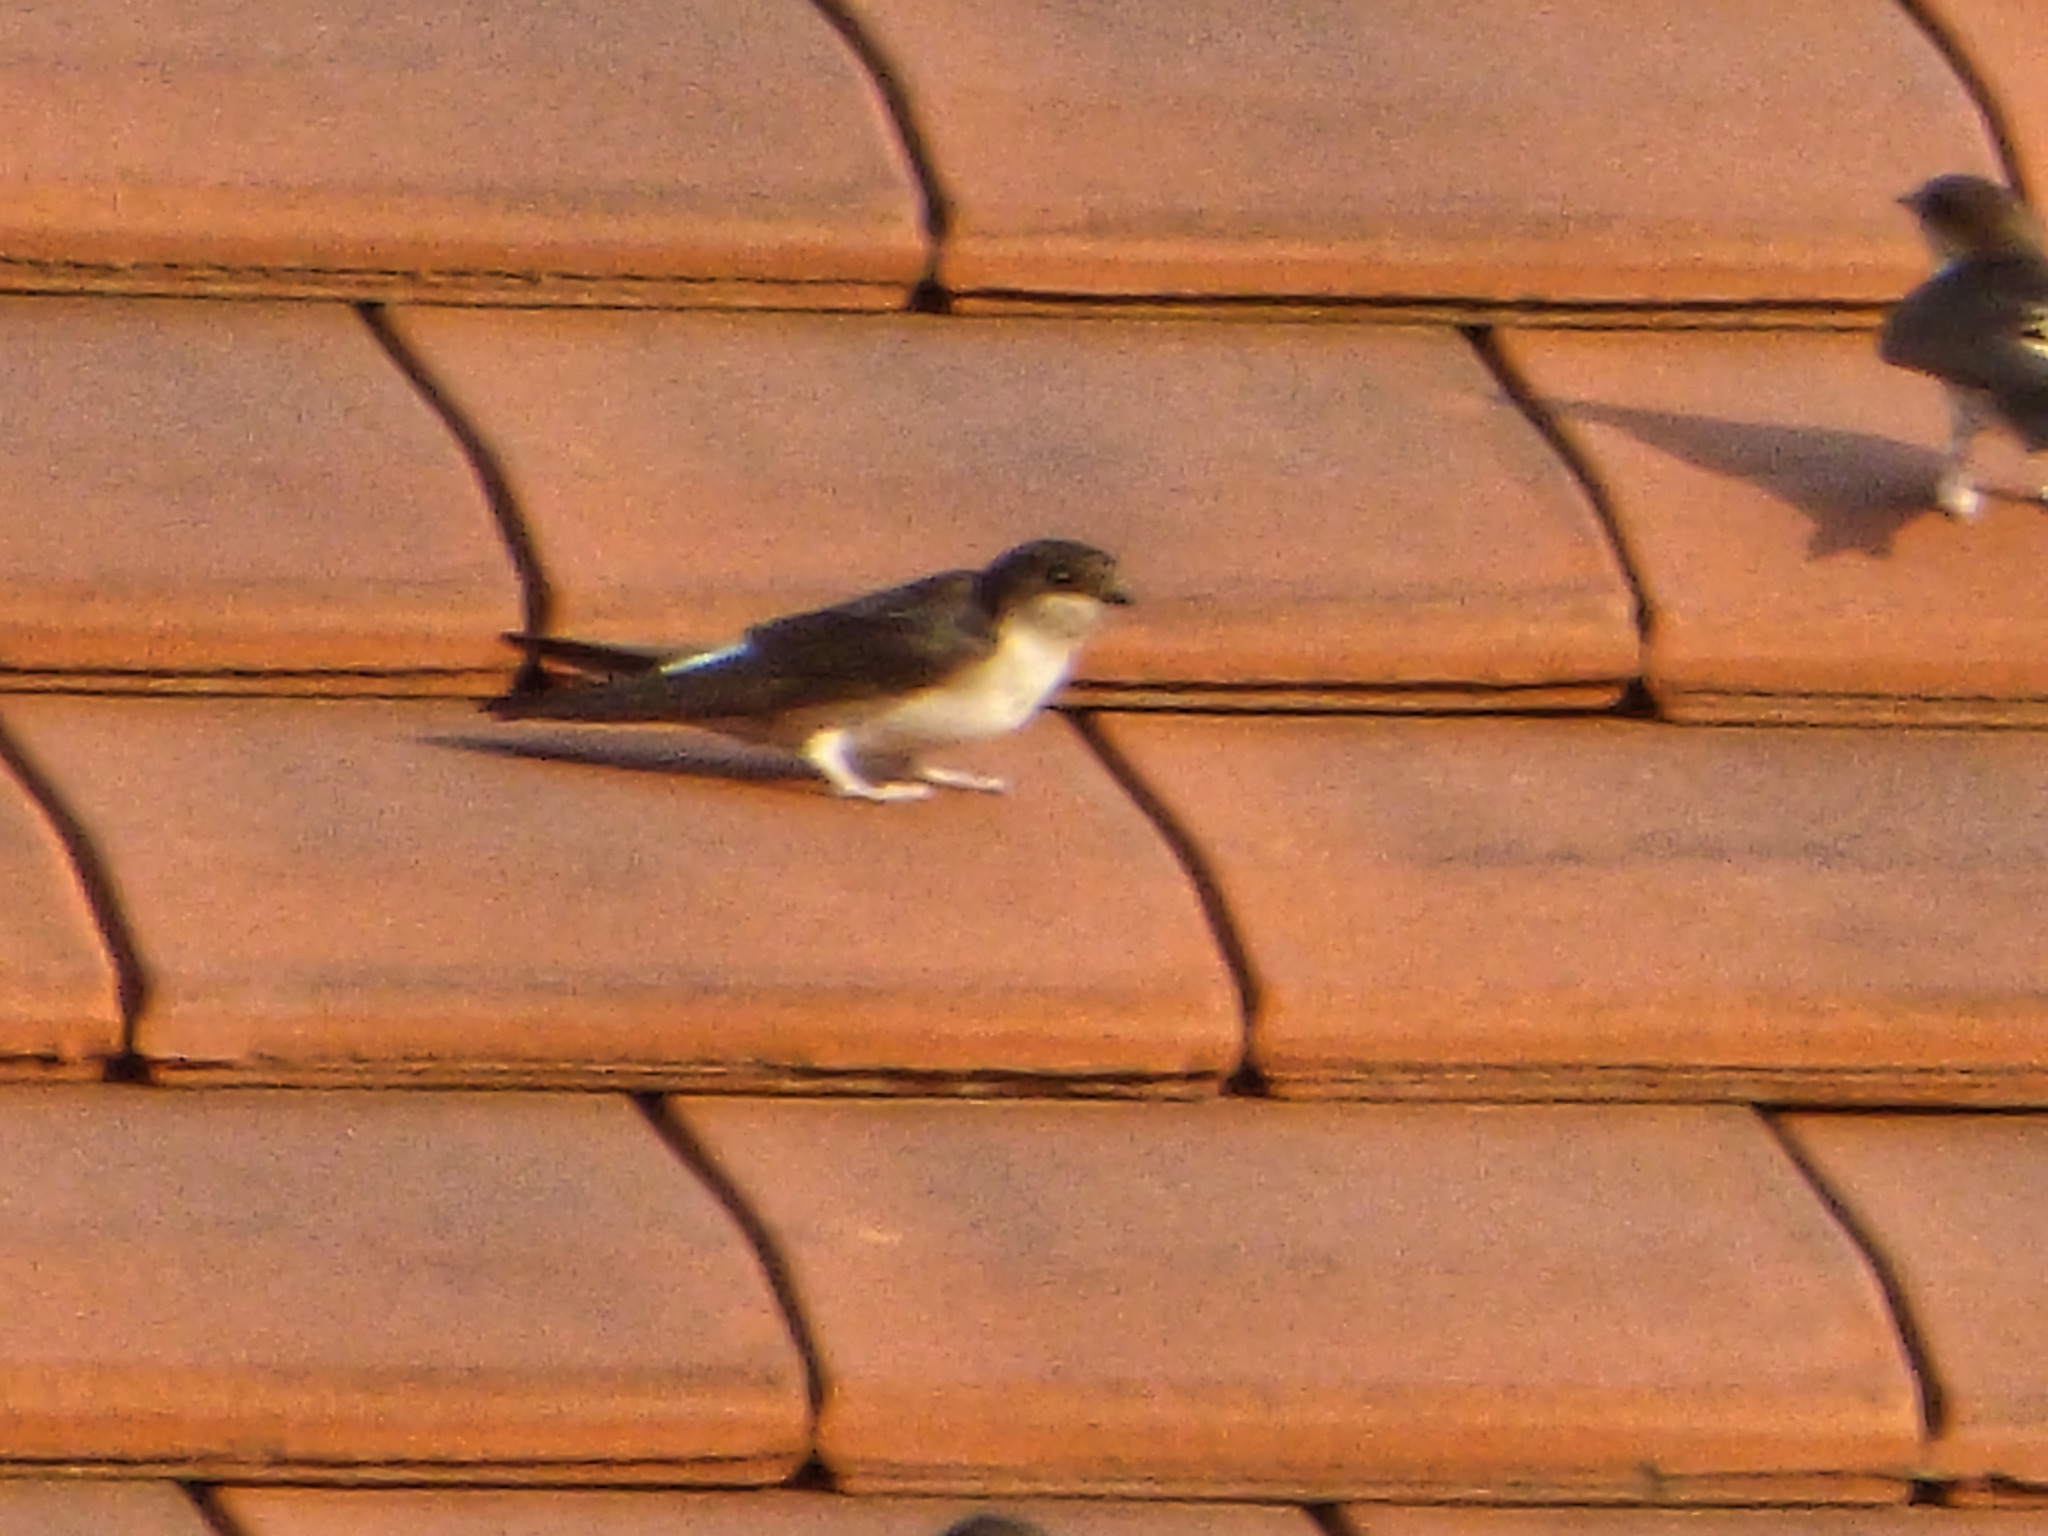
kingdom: Animalia
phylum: Chordata
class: Aves
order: Passeriformes
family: Hirundinidae
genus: Delichon
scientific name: Delichon urbicum
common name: Common house martin
